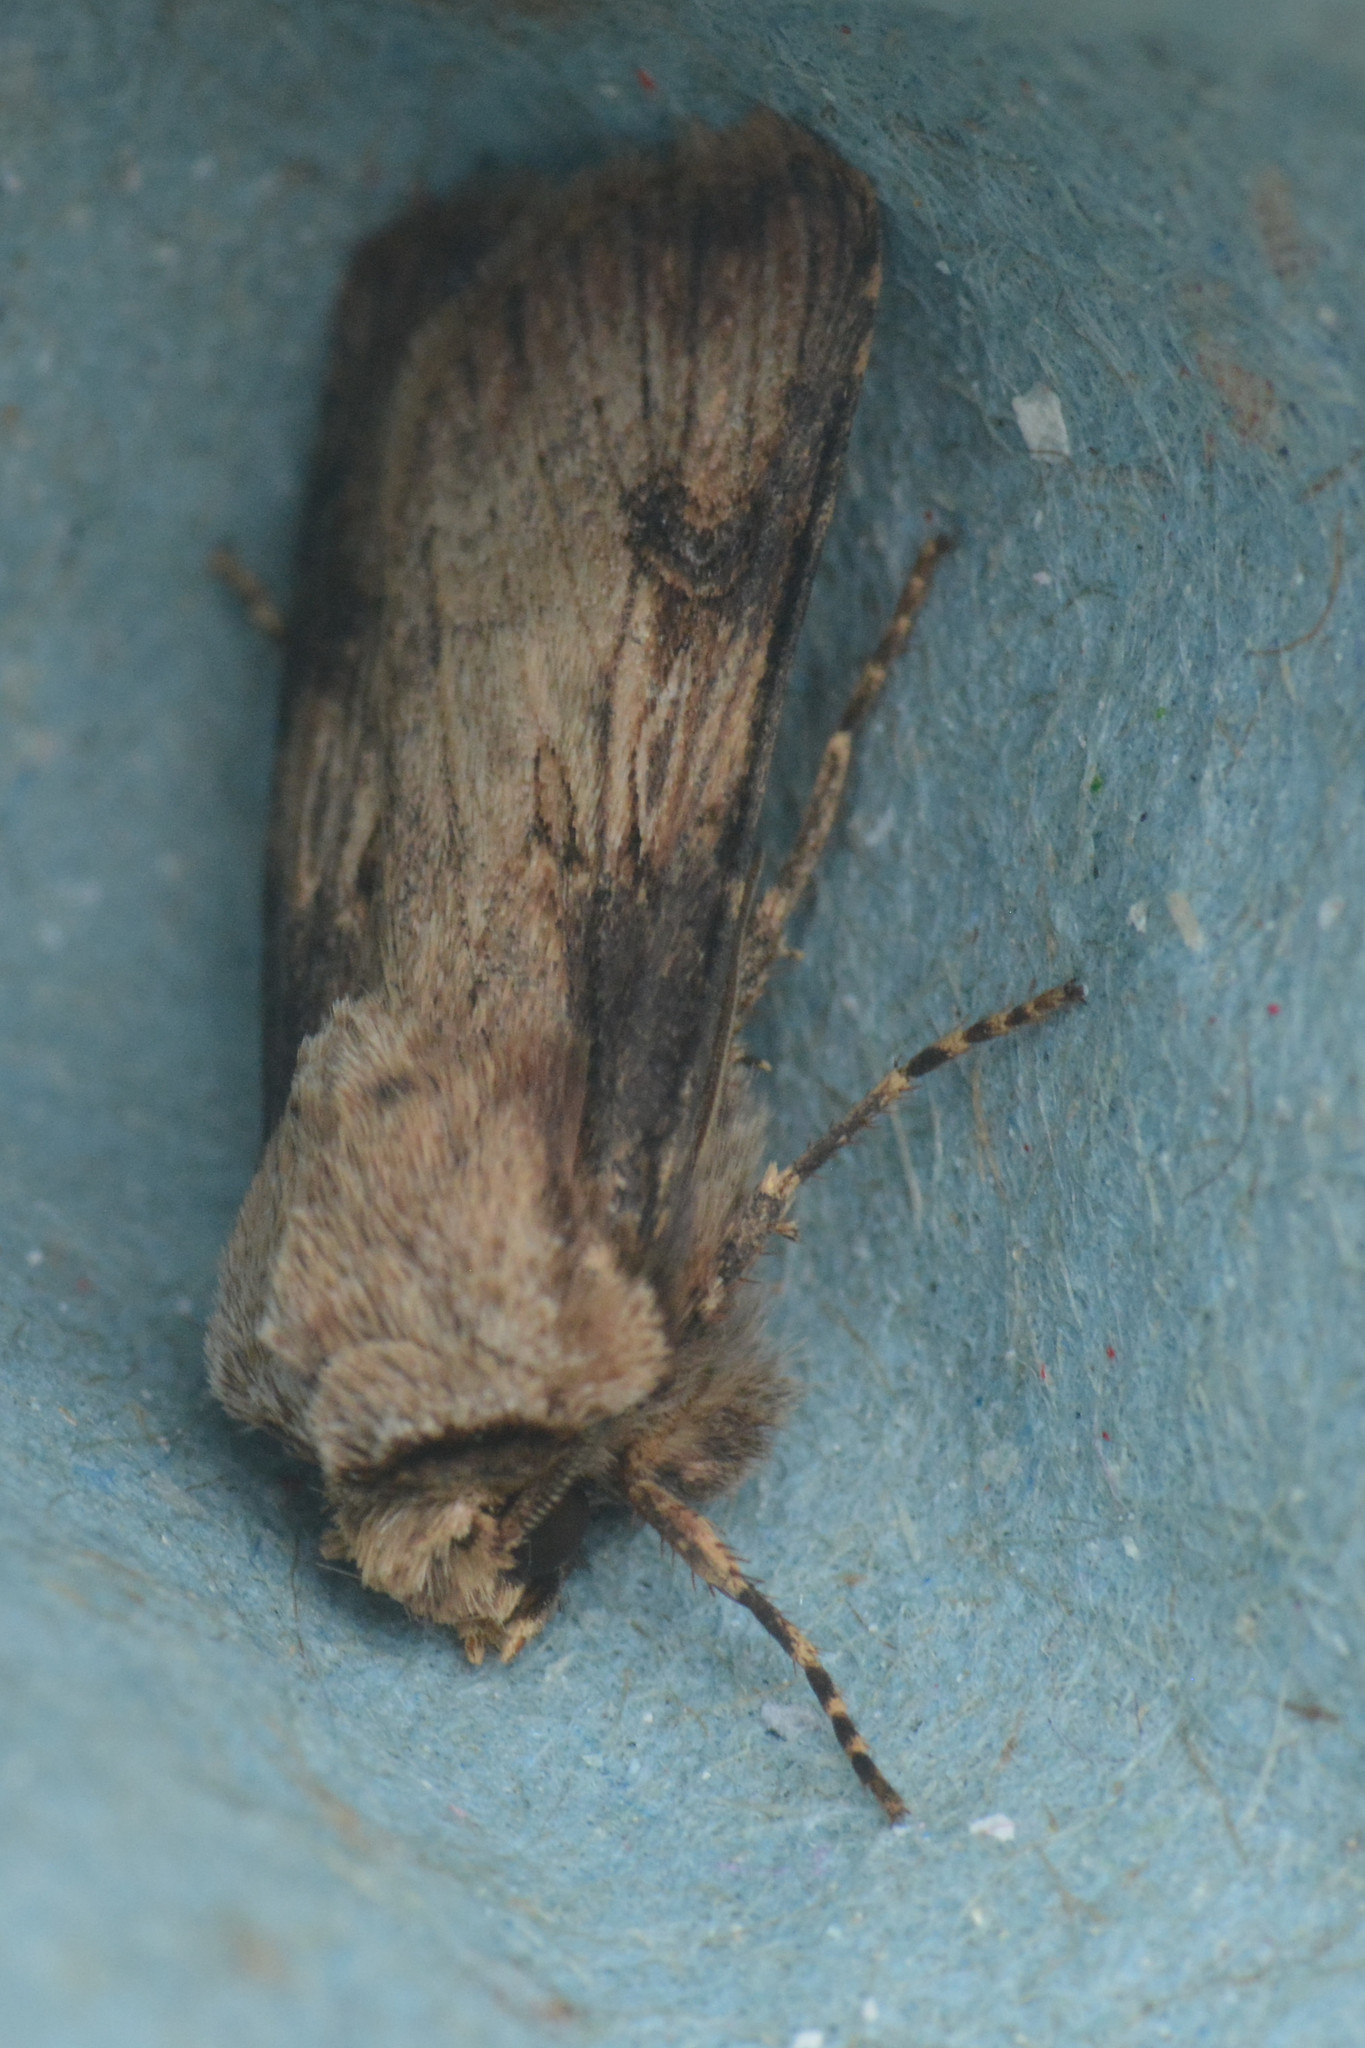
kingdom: Animalia
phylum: Arthropoda
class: Insecta
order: Lepidoptera
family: Noctuidae
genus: Agrotis
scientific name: Agrotis puta
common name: Shuttle-shaped dart
